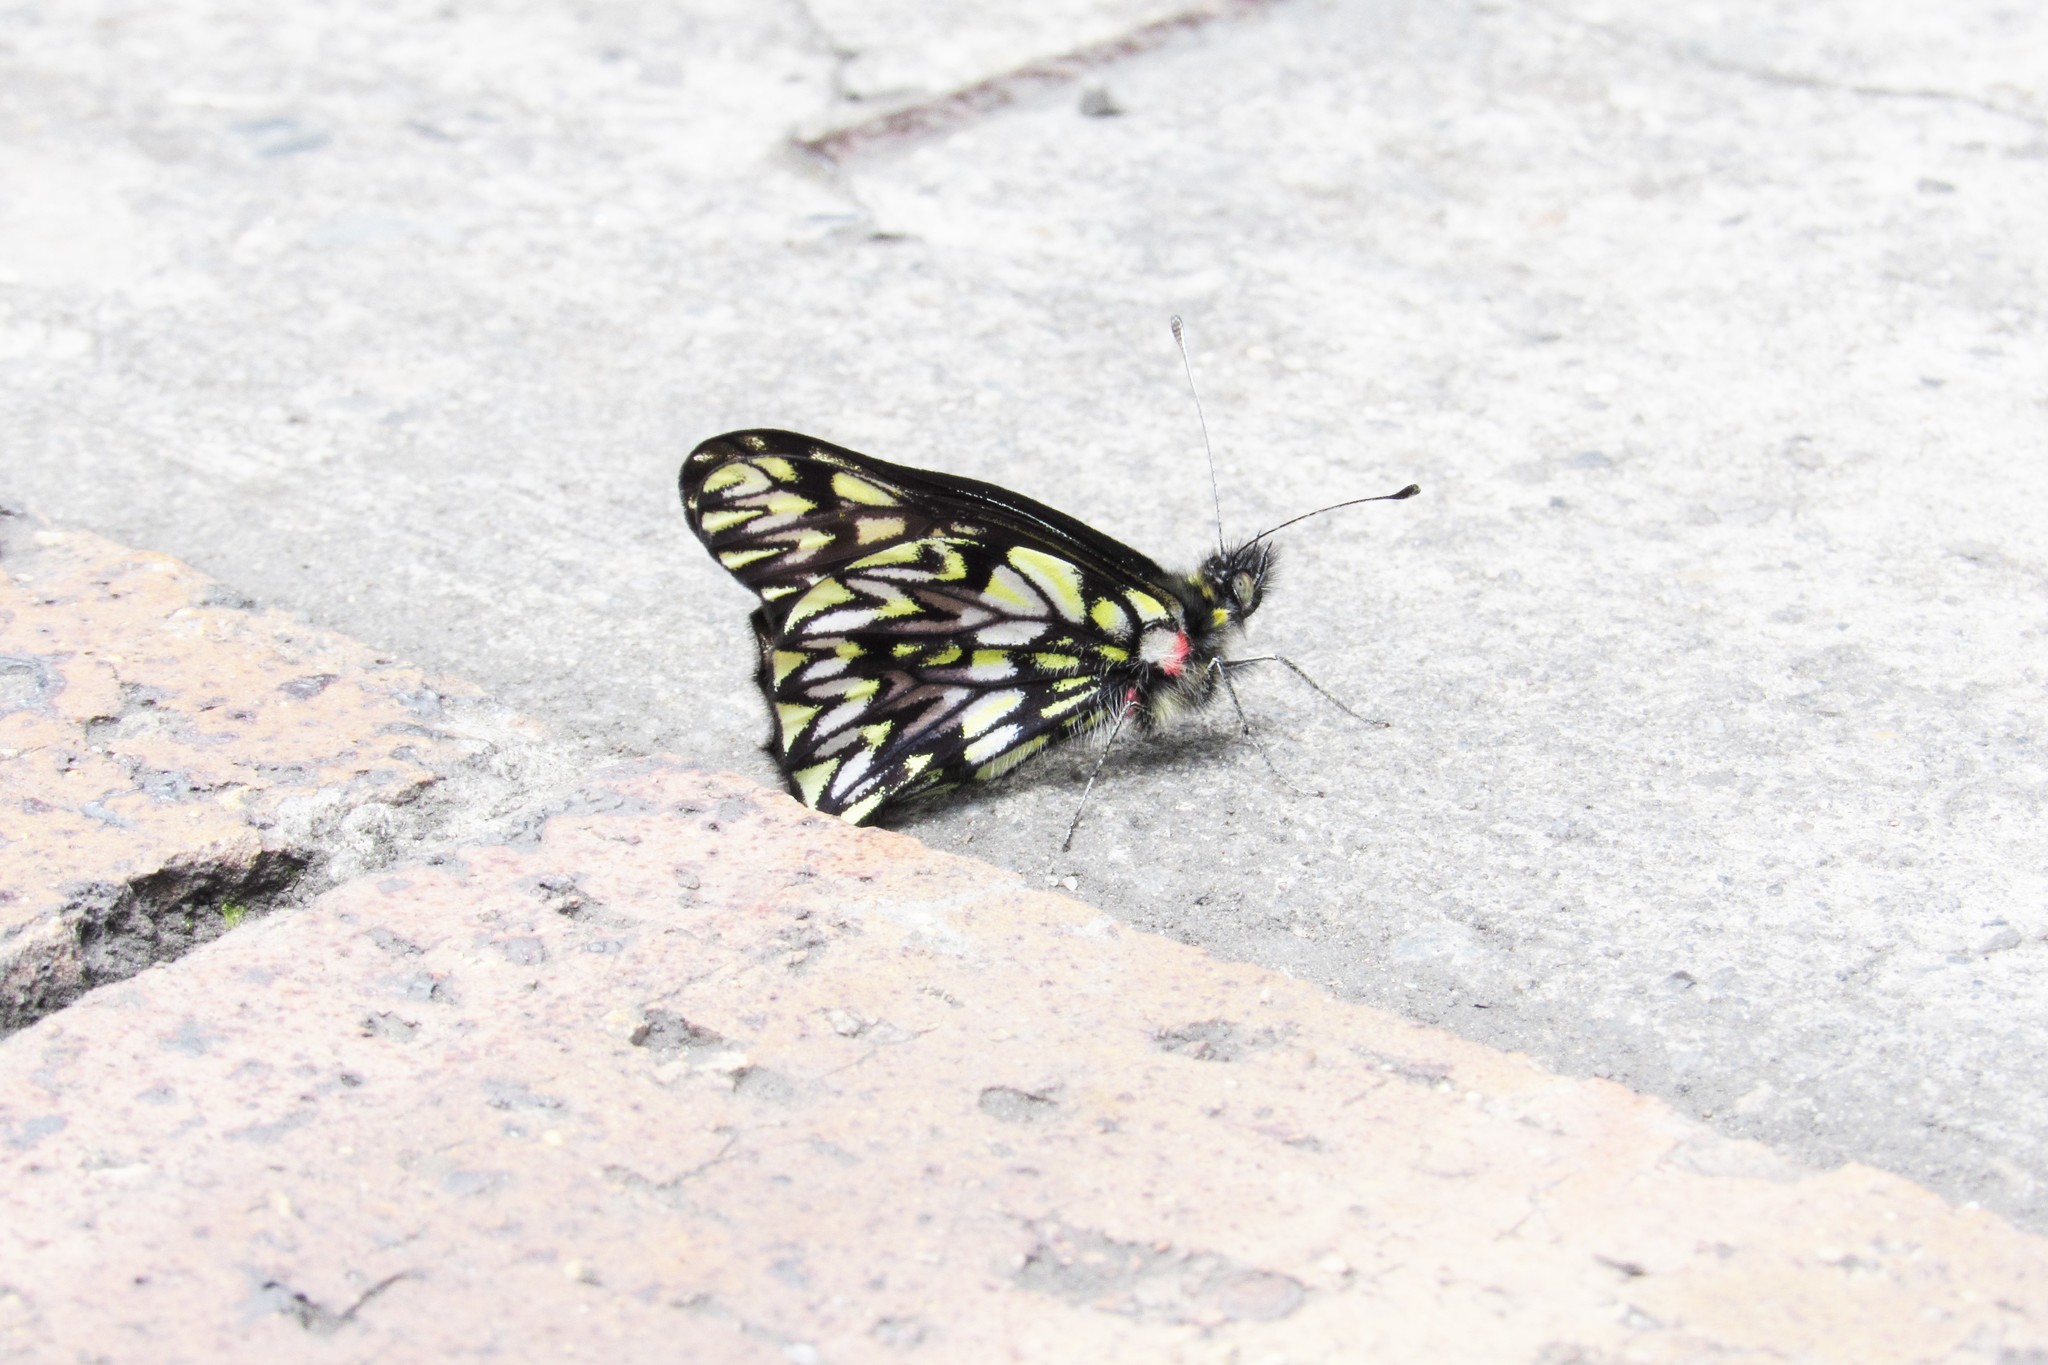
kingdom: Animalia
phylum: Arthropoda
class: Insecta
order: Lepidoptera
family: Pieridae
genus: Catasticta
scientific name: Catasticta philais
